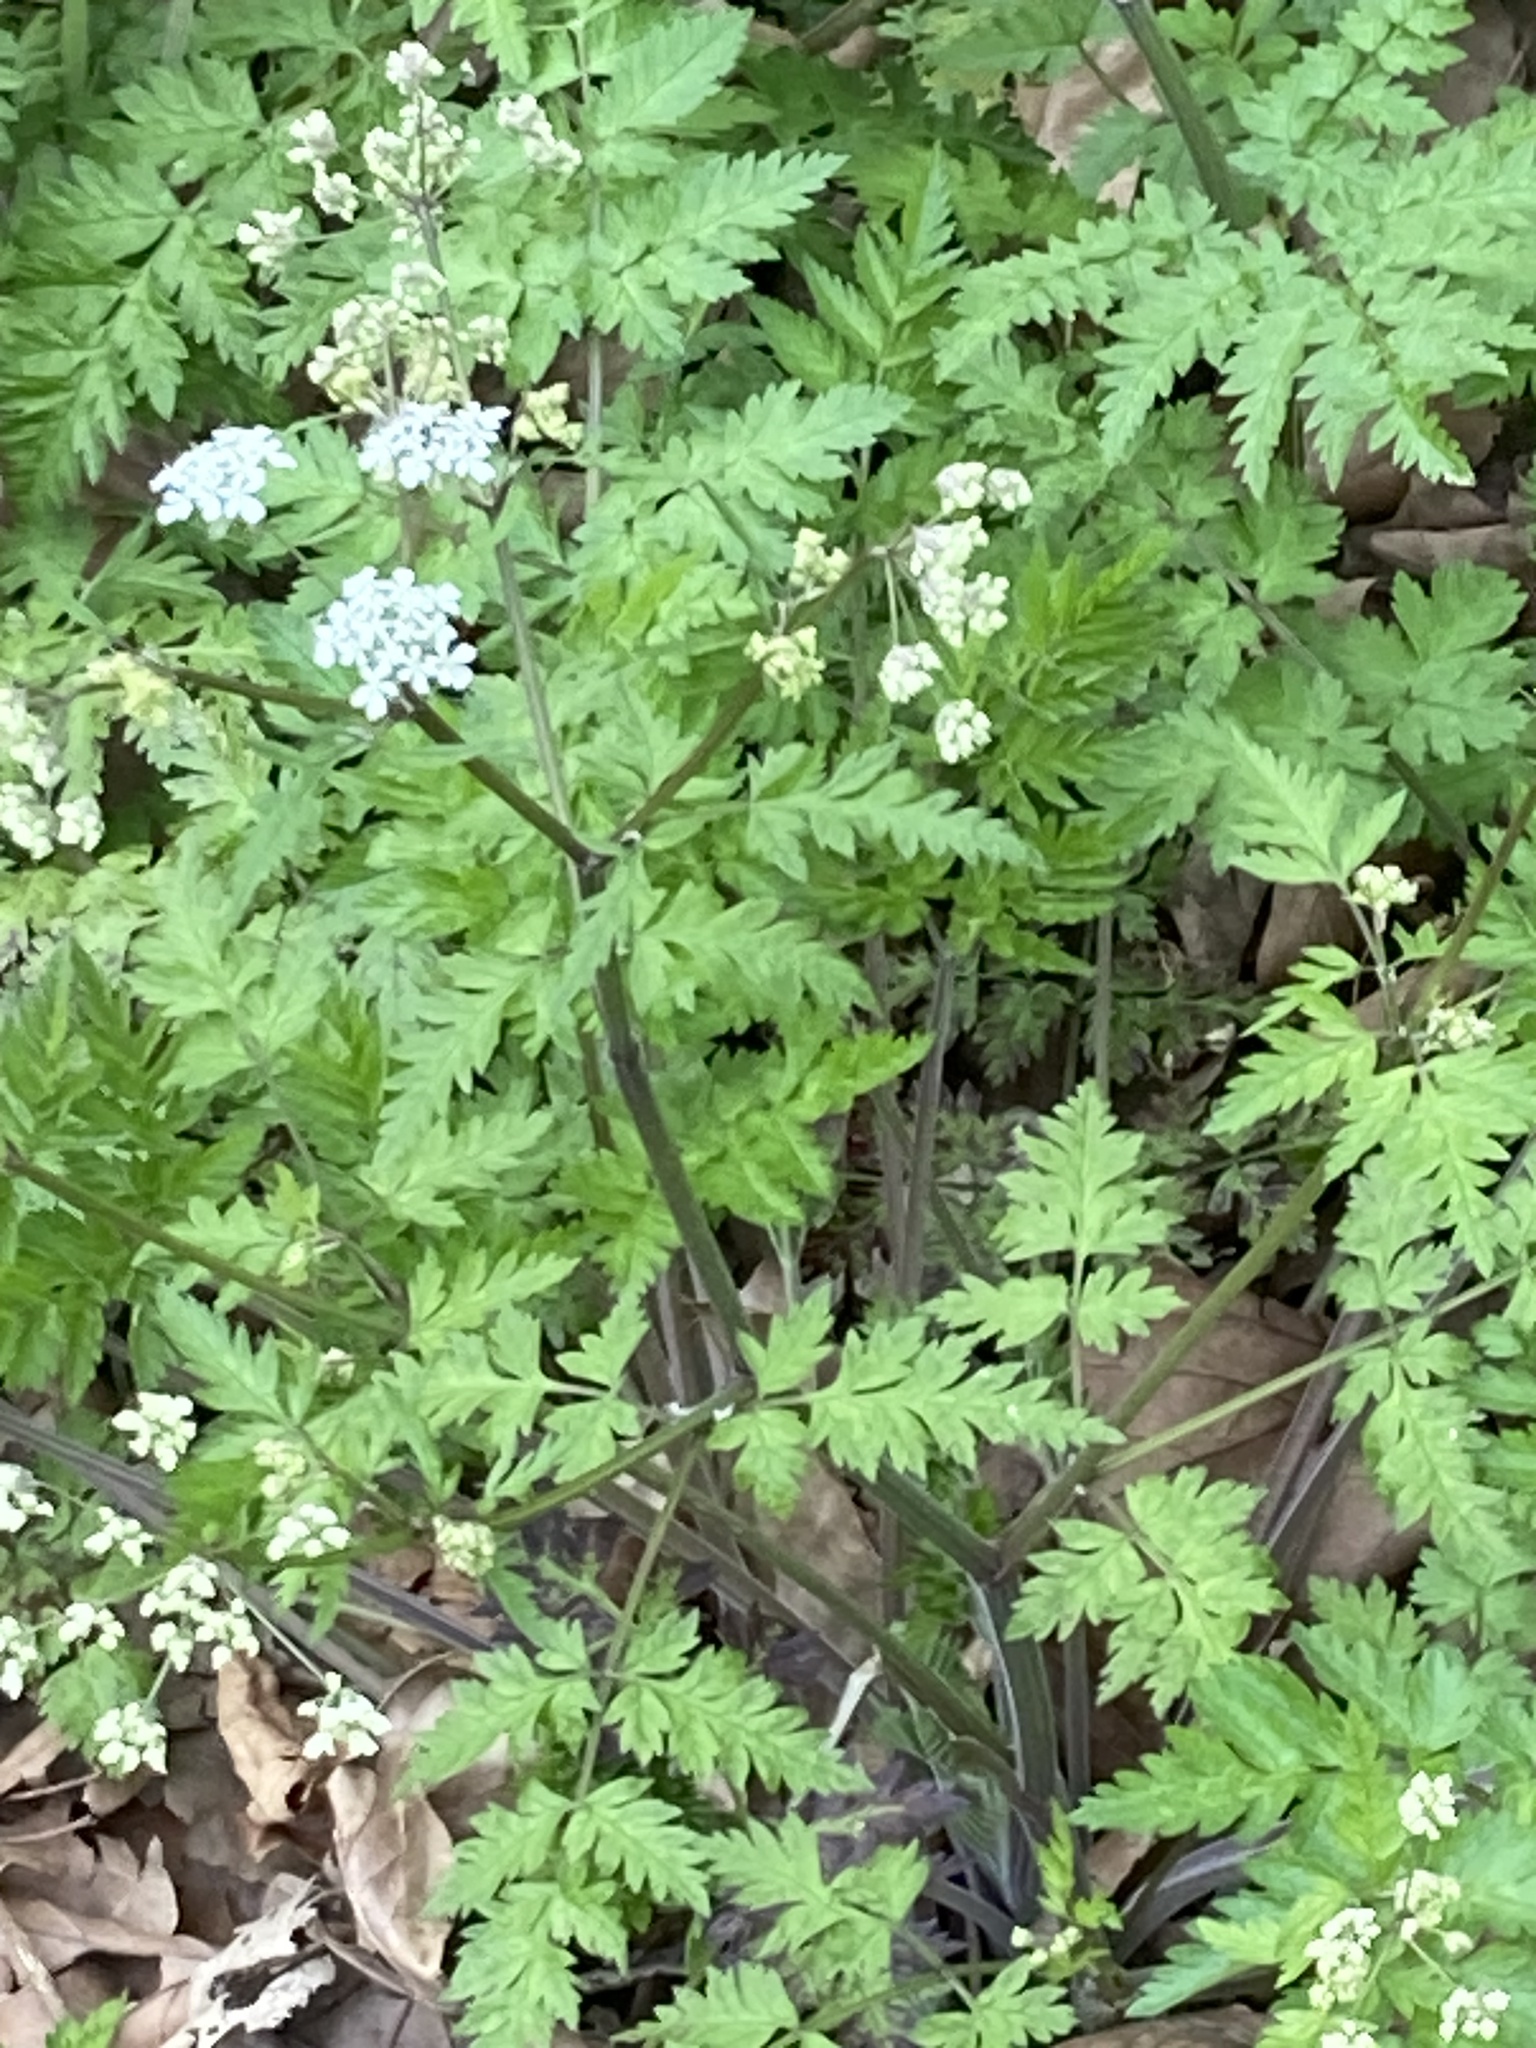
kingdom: Plantae
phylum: Tracheophyta
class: Magnoliopsida
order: Apiales
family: Apiaceae
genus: Anthriscus
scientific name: Anthriscus sylvestris
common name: Cow parsley
